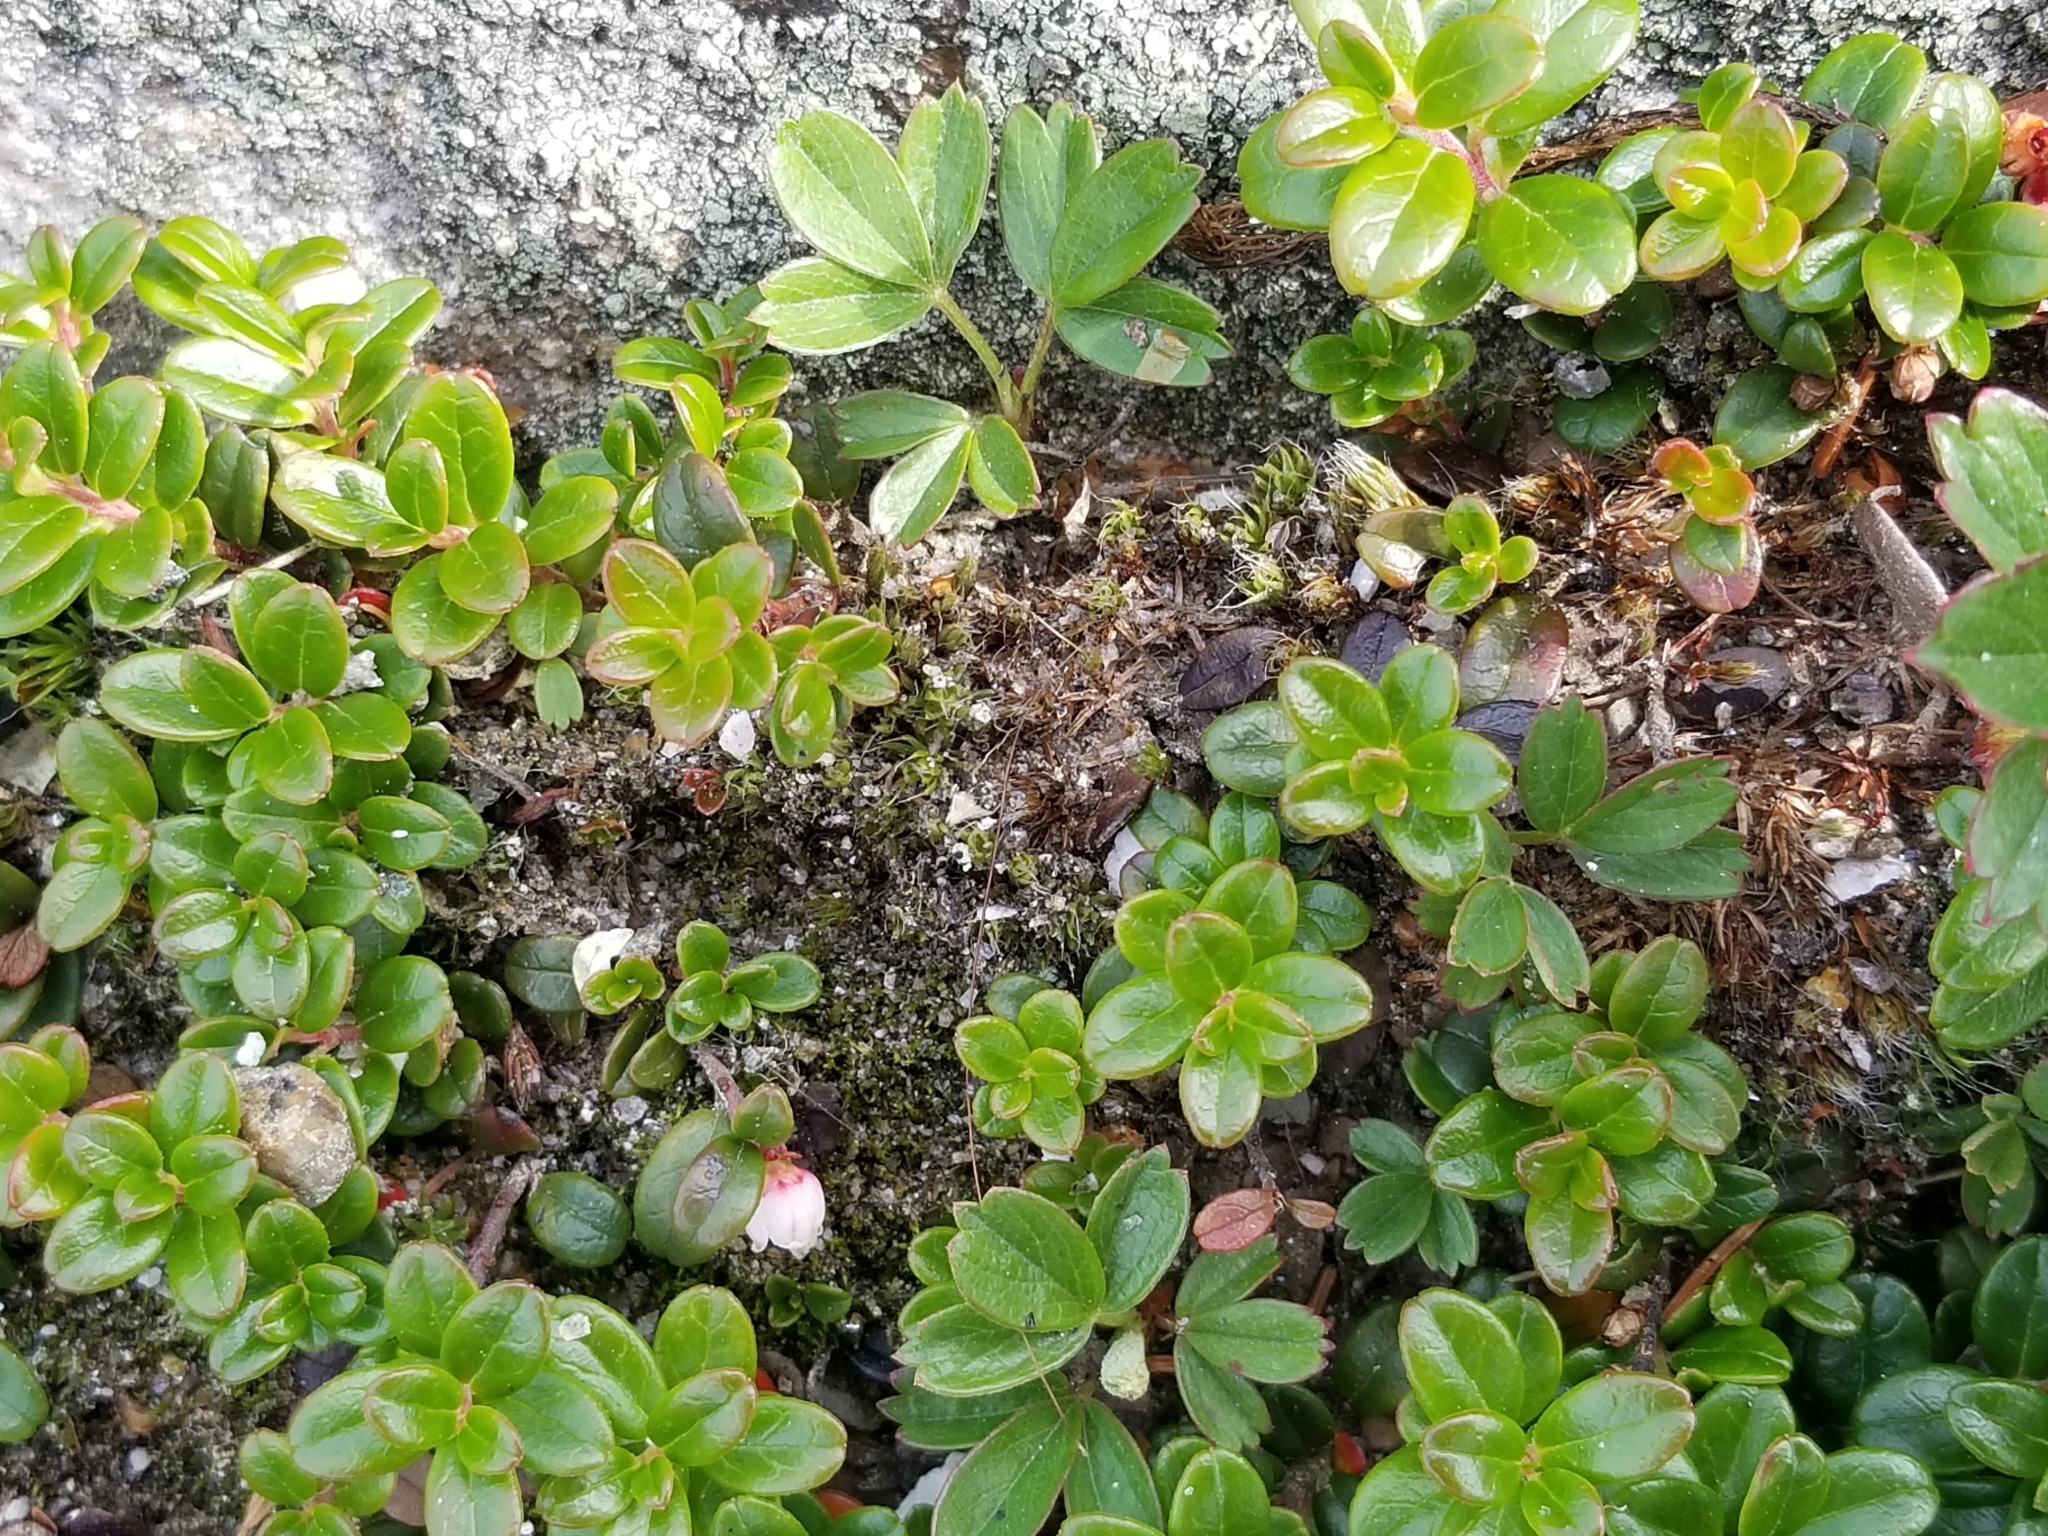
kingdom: Plantae
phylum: Tracheophyta
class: Magnoliopsida
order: Ericales
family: Ericaceae
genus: Vaccinium
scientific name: Vaccinium vitis-idaea
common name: Cowberry
